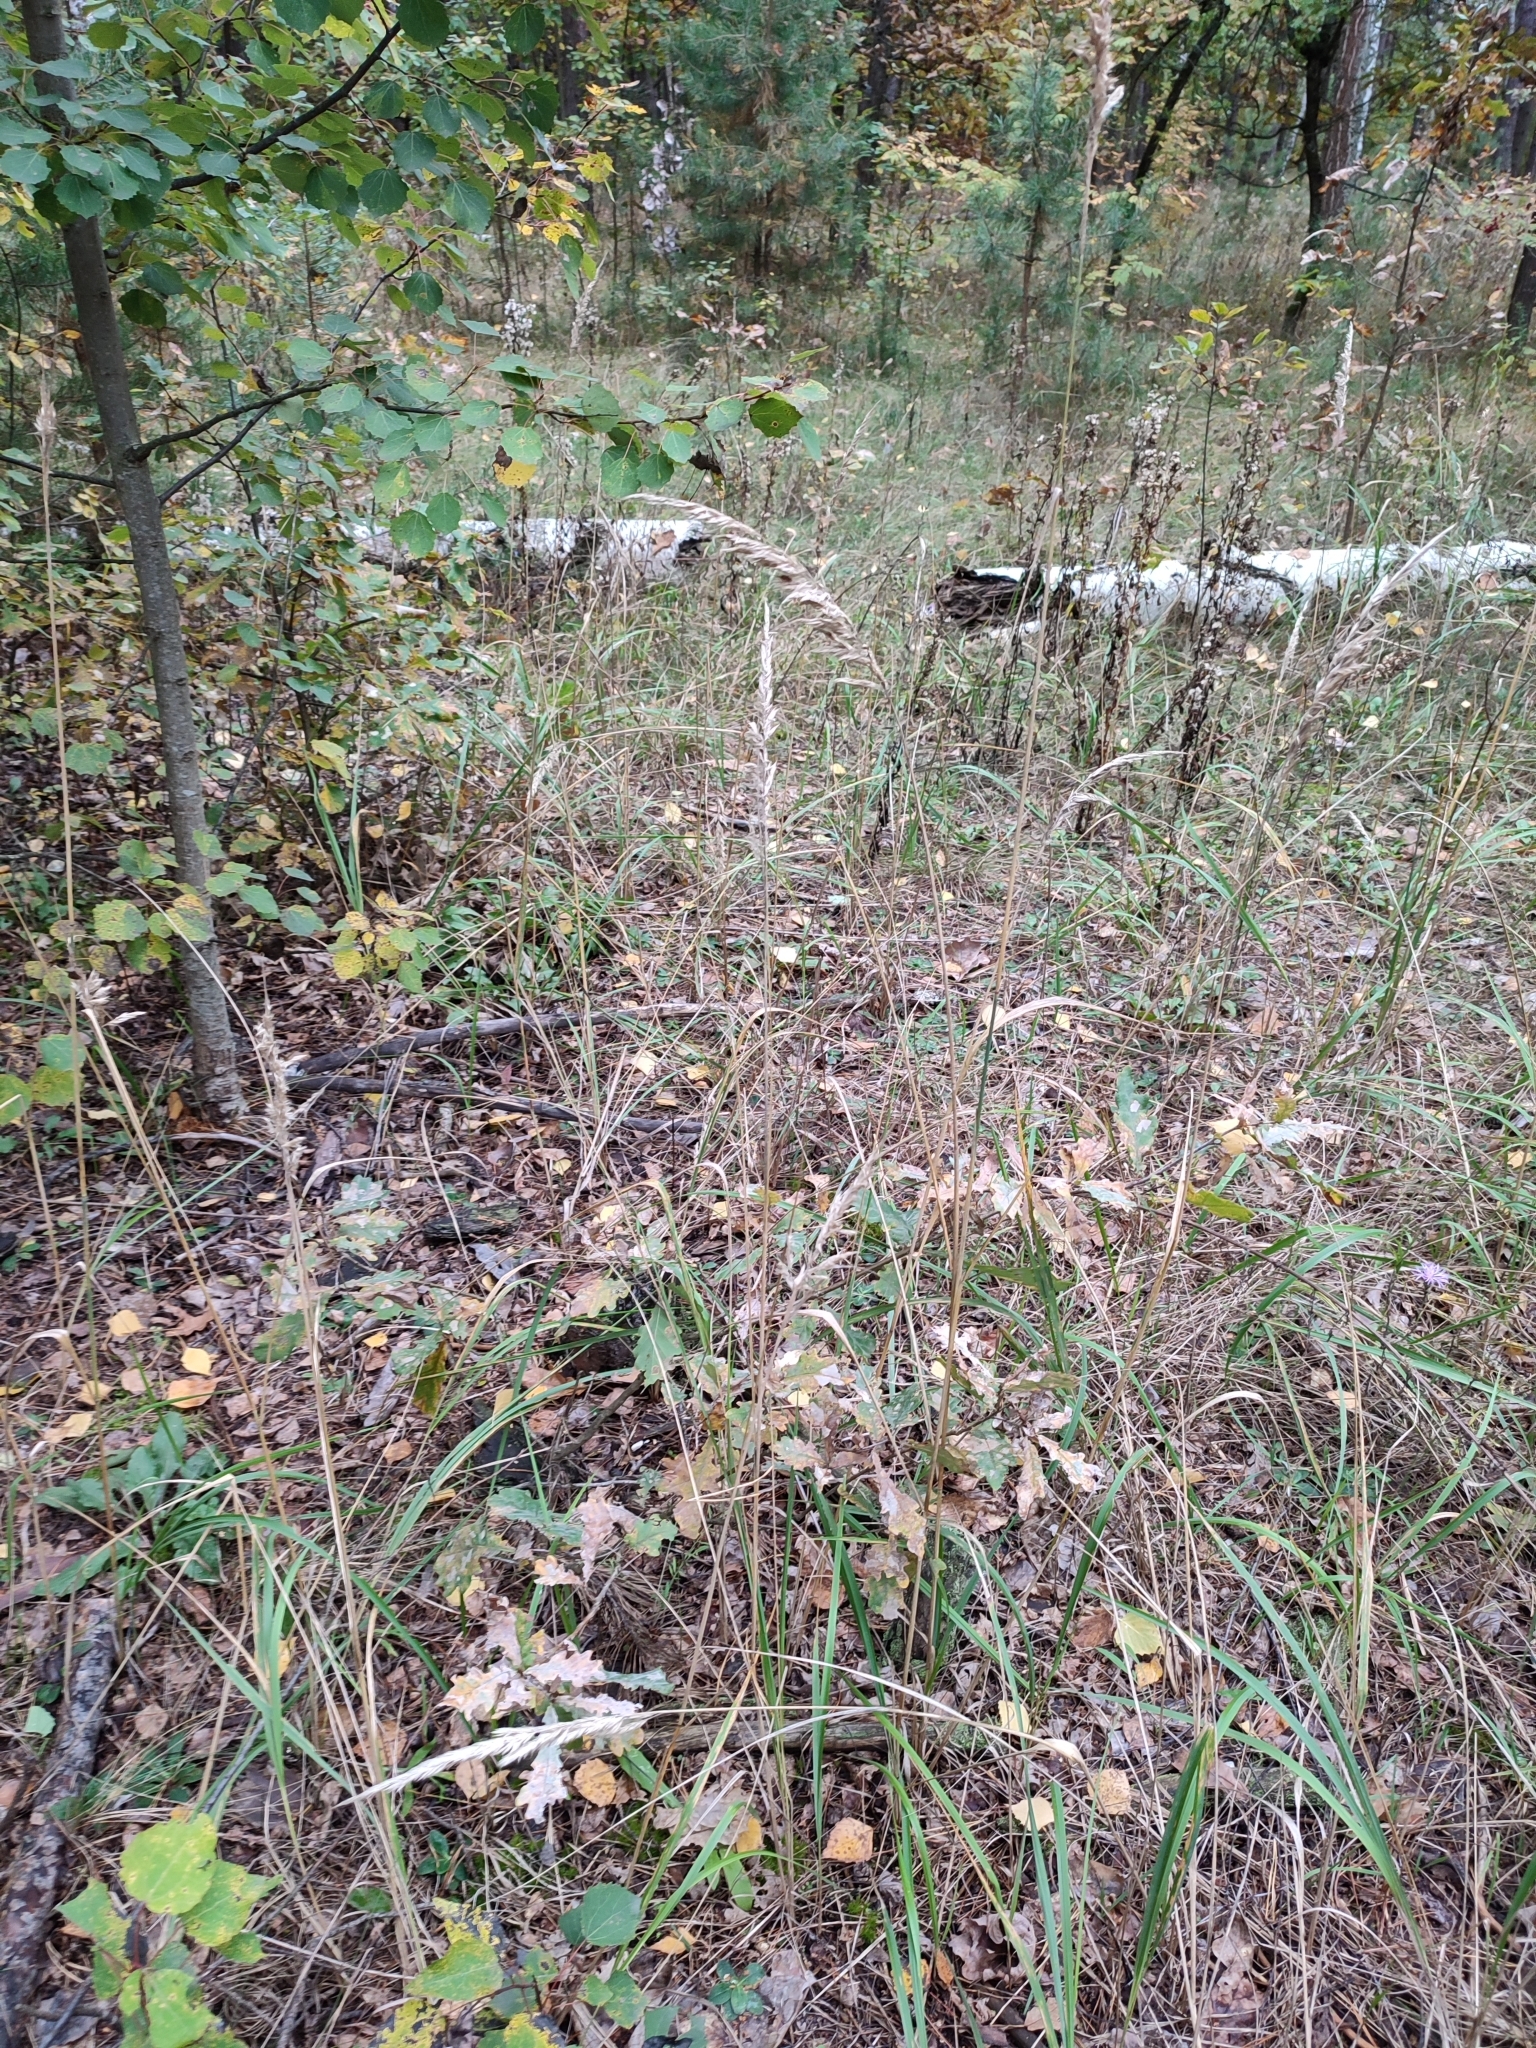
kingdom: Plantae
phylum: Tracheophyta
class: Magnoliopsida
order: Fagales
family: Fagaceae
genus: Quercus
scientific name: Quercus robur
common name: Pedunculate oak
